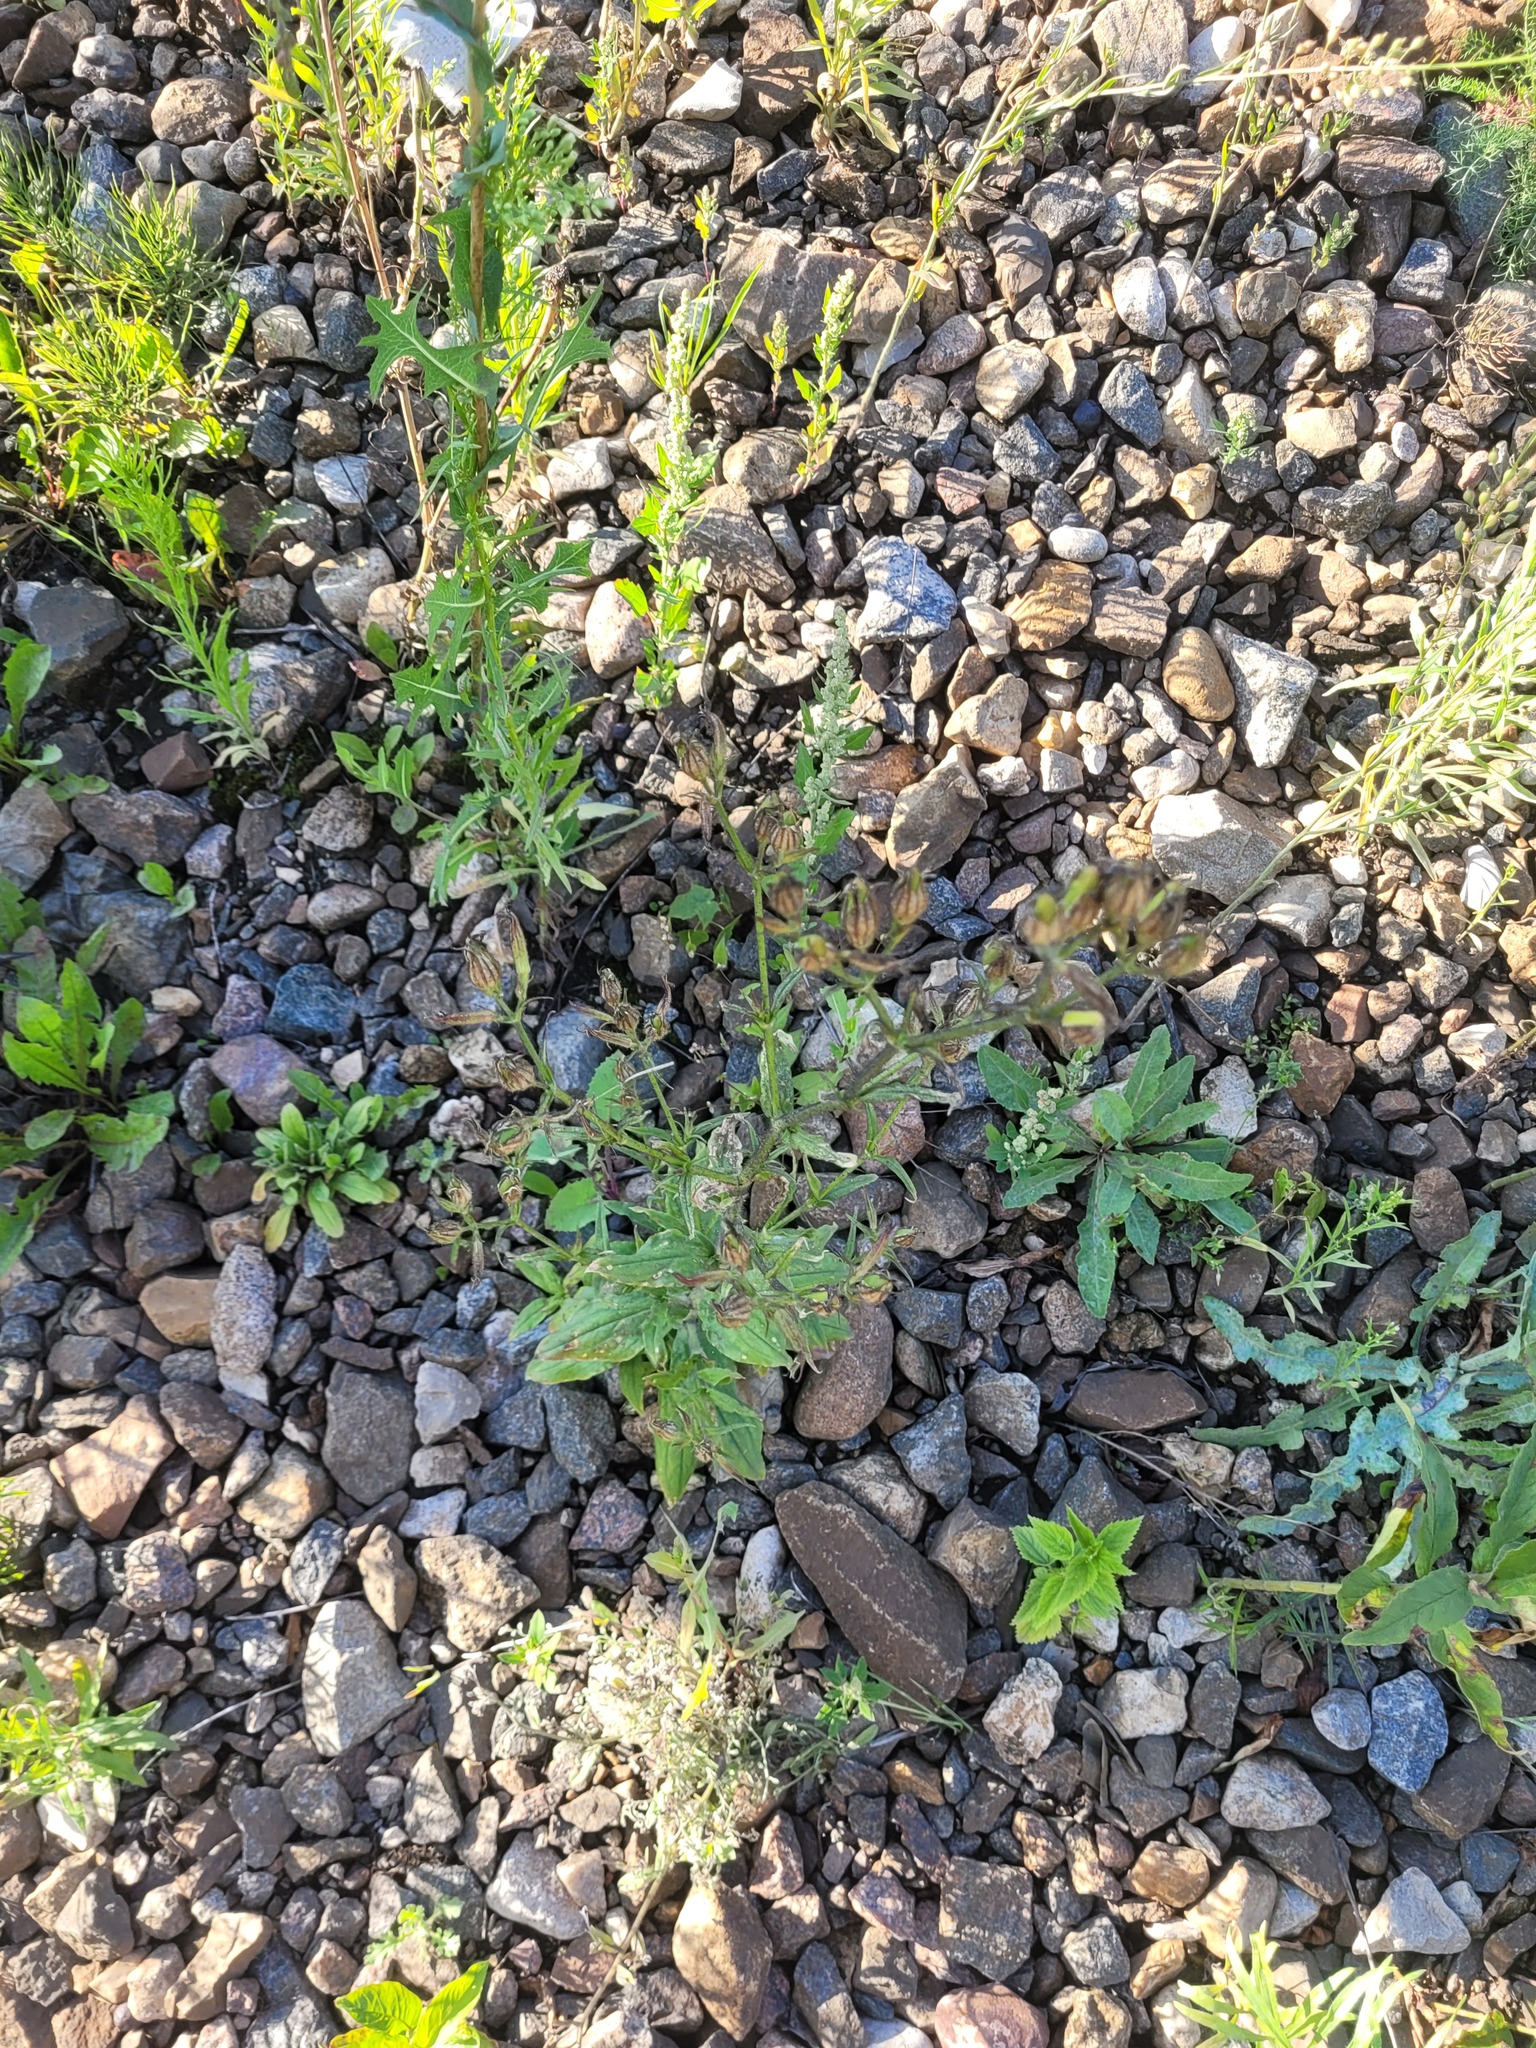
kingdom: Plantae
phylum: Tracheophyta
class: Magnoliopsida
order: Caryophyllales
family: Caryophyllaceae
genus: Silene
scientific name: Silene noctiflora
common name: Night-flowering catchfly
